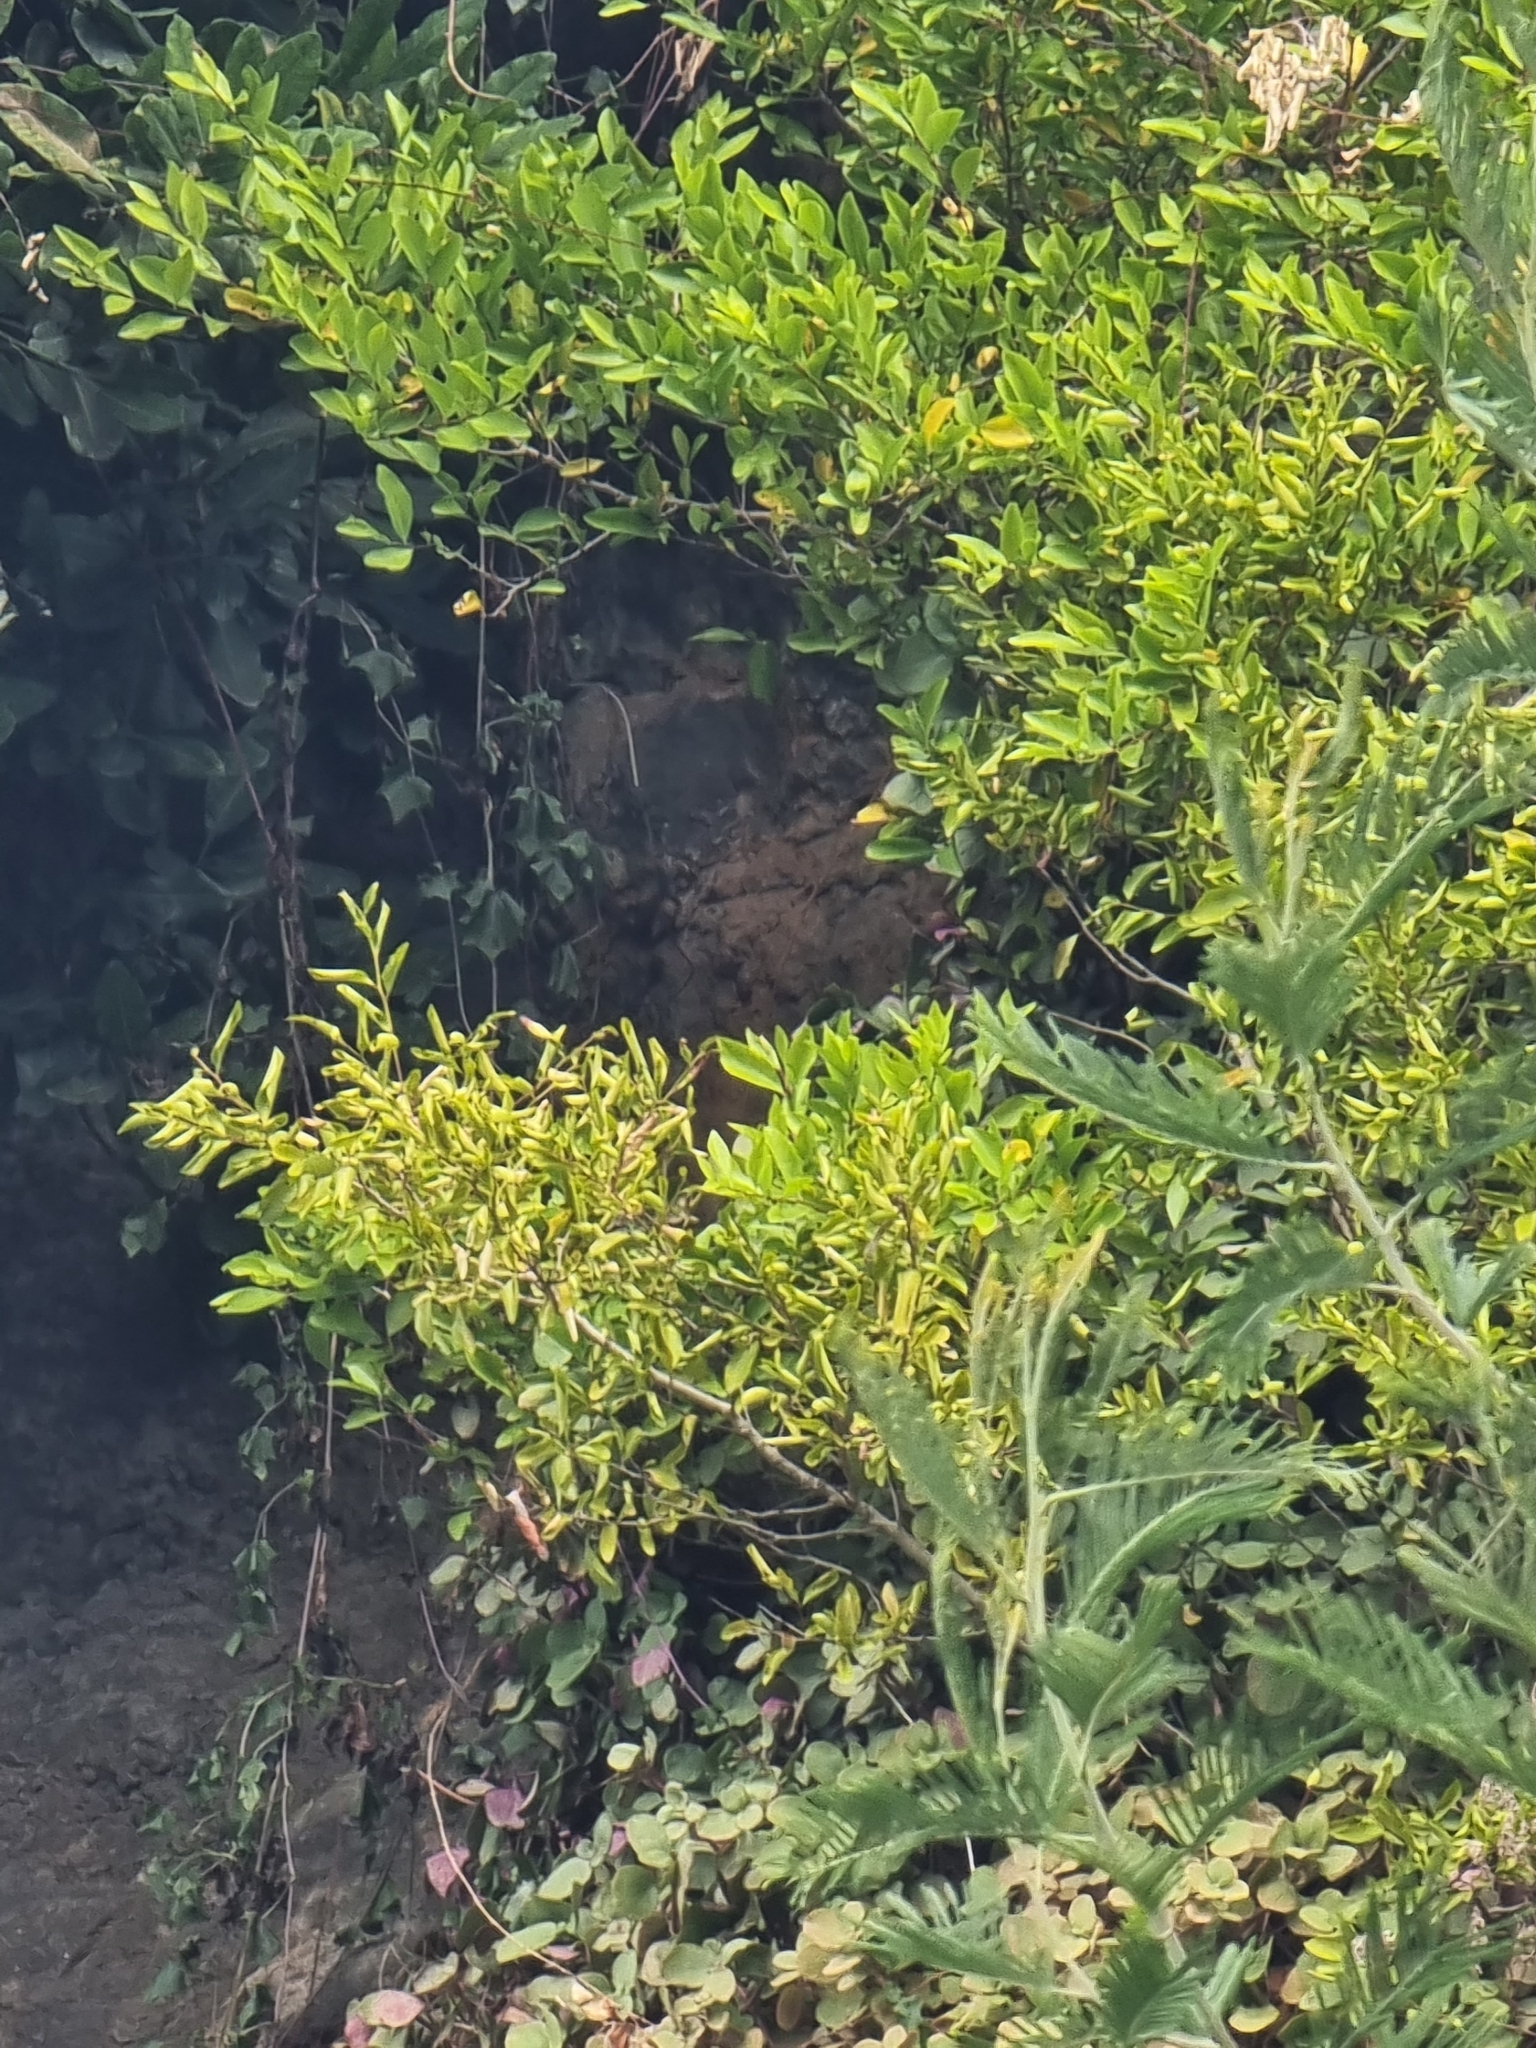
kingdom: Plantae
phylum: Tracheophyta
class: Magnoliopsida
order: Celastrales
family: Celastraceae
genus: Gymnosporia
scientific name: Gymnosporia dryandri
